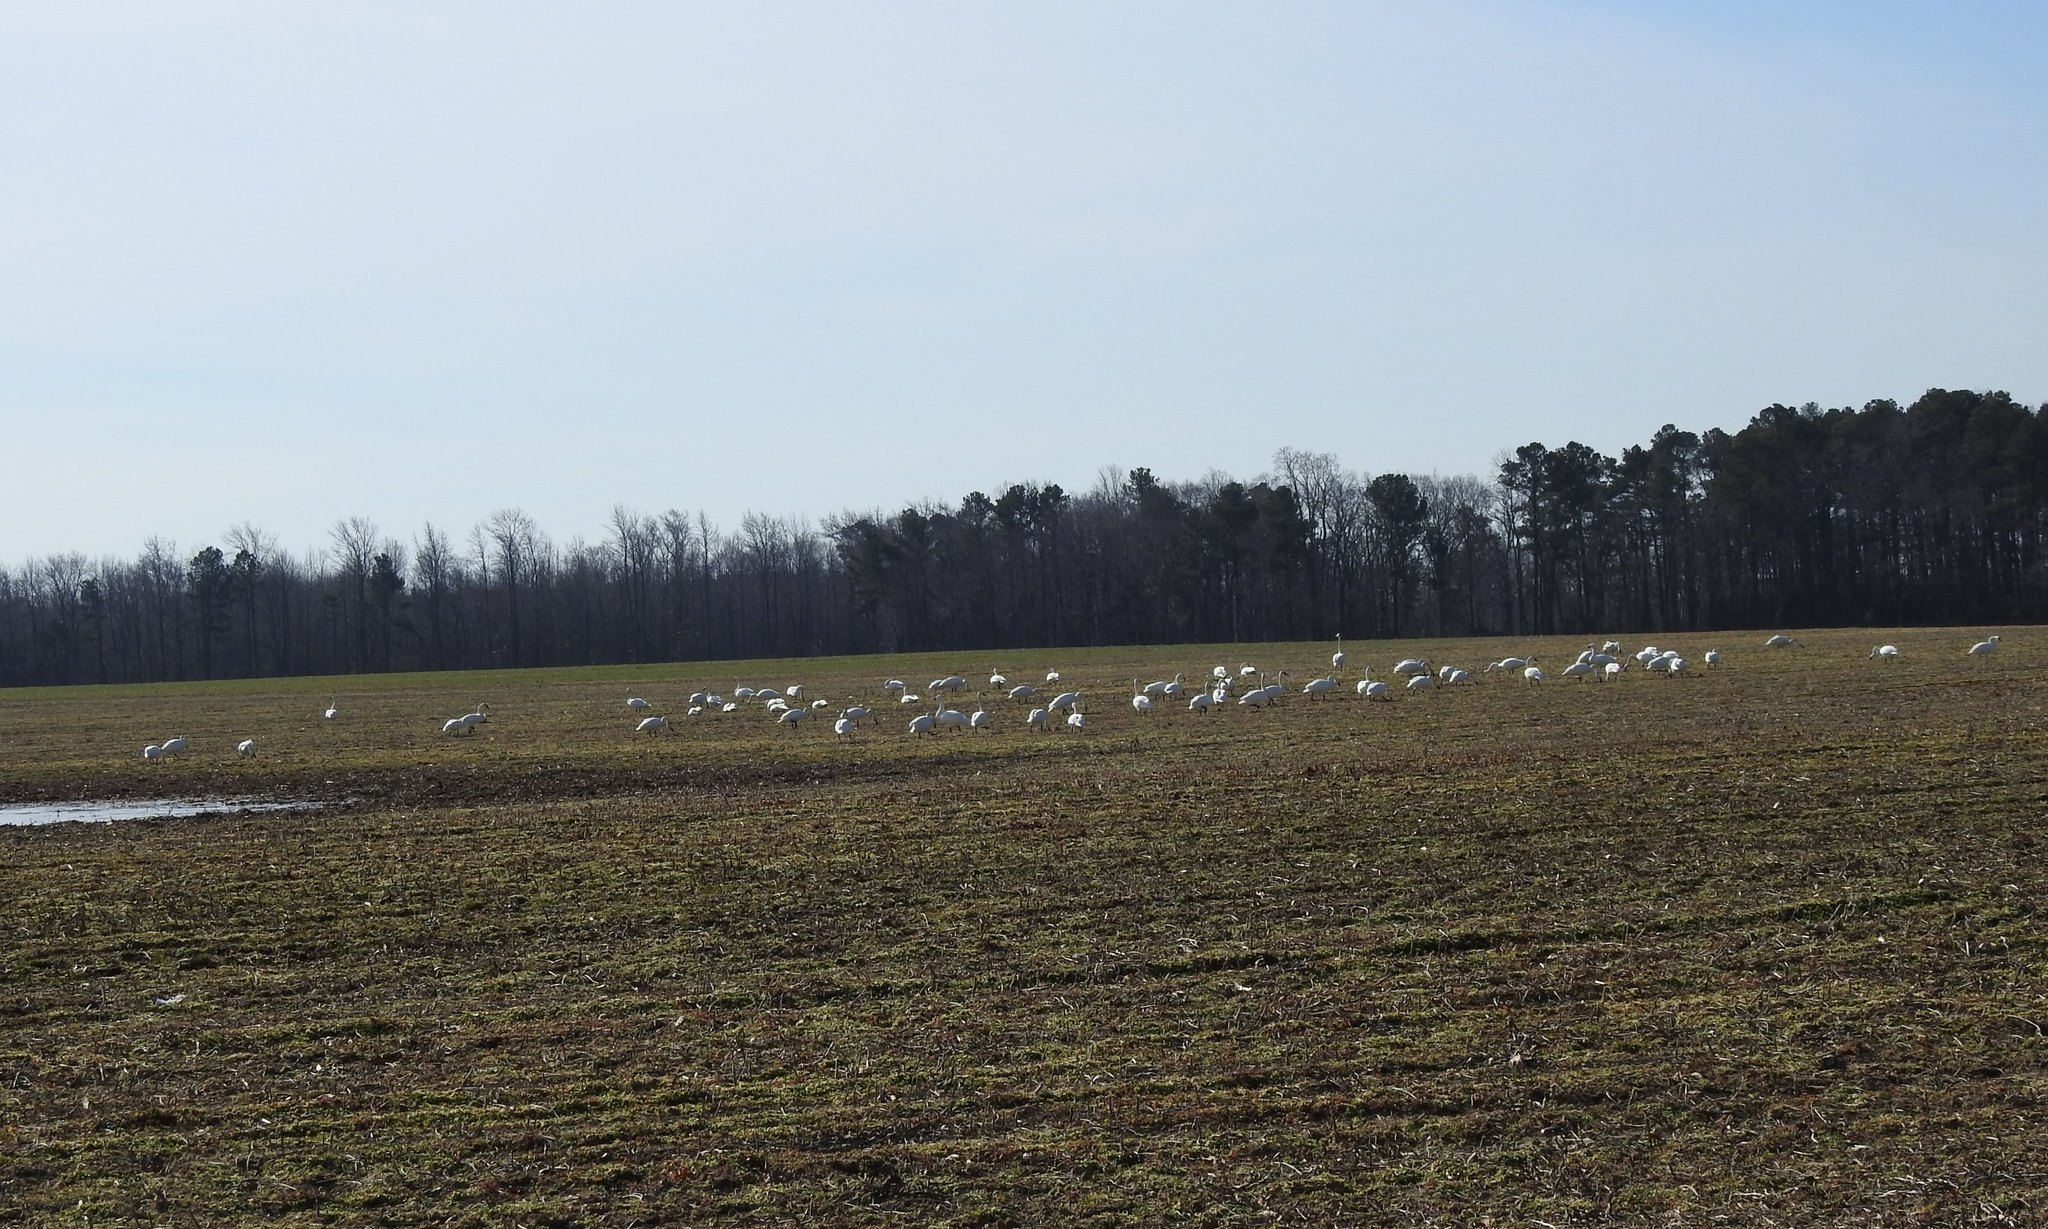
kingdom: Animalia
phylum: Chordata
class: Aves
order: Anseriformes
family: Anatidae
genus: Cygnus
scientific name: Cygnus columbianus
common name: Tundra swan
